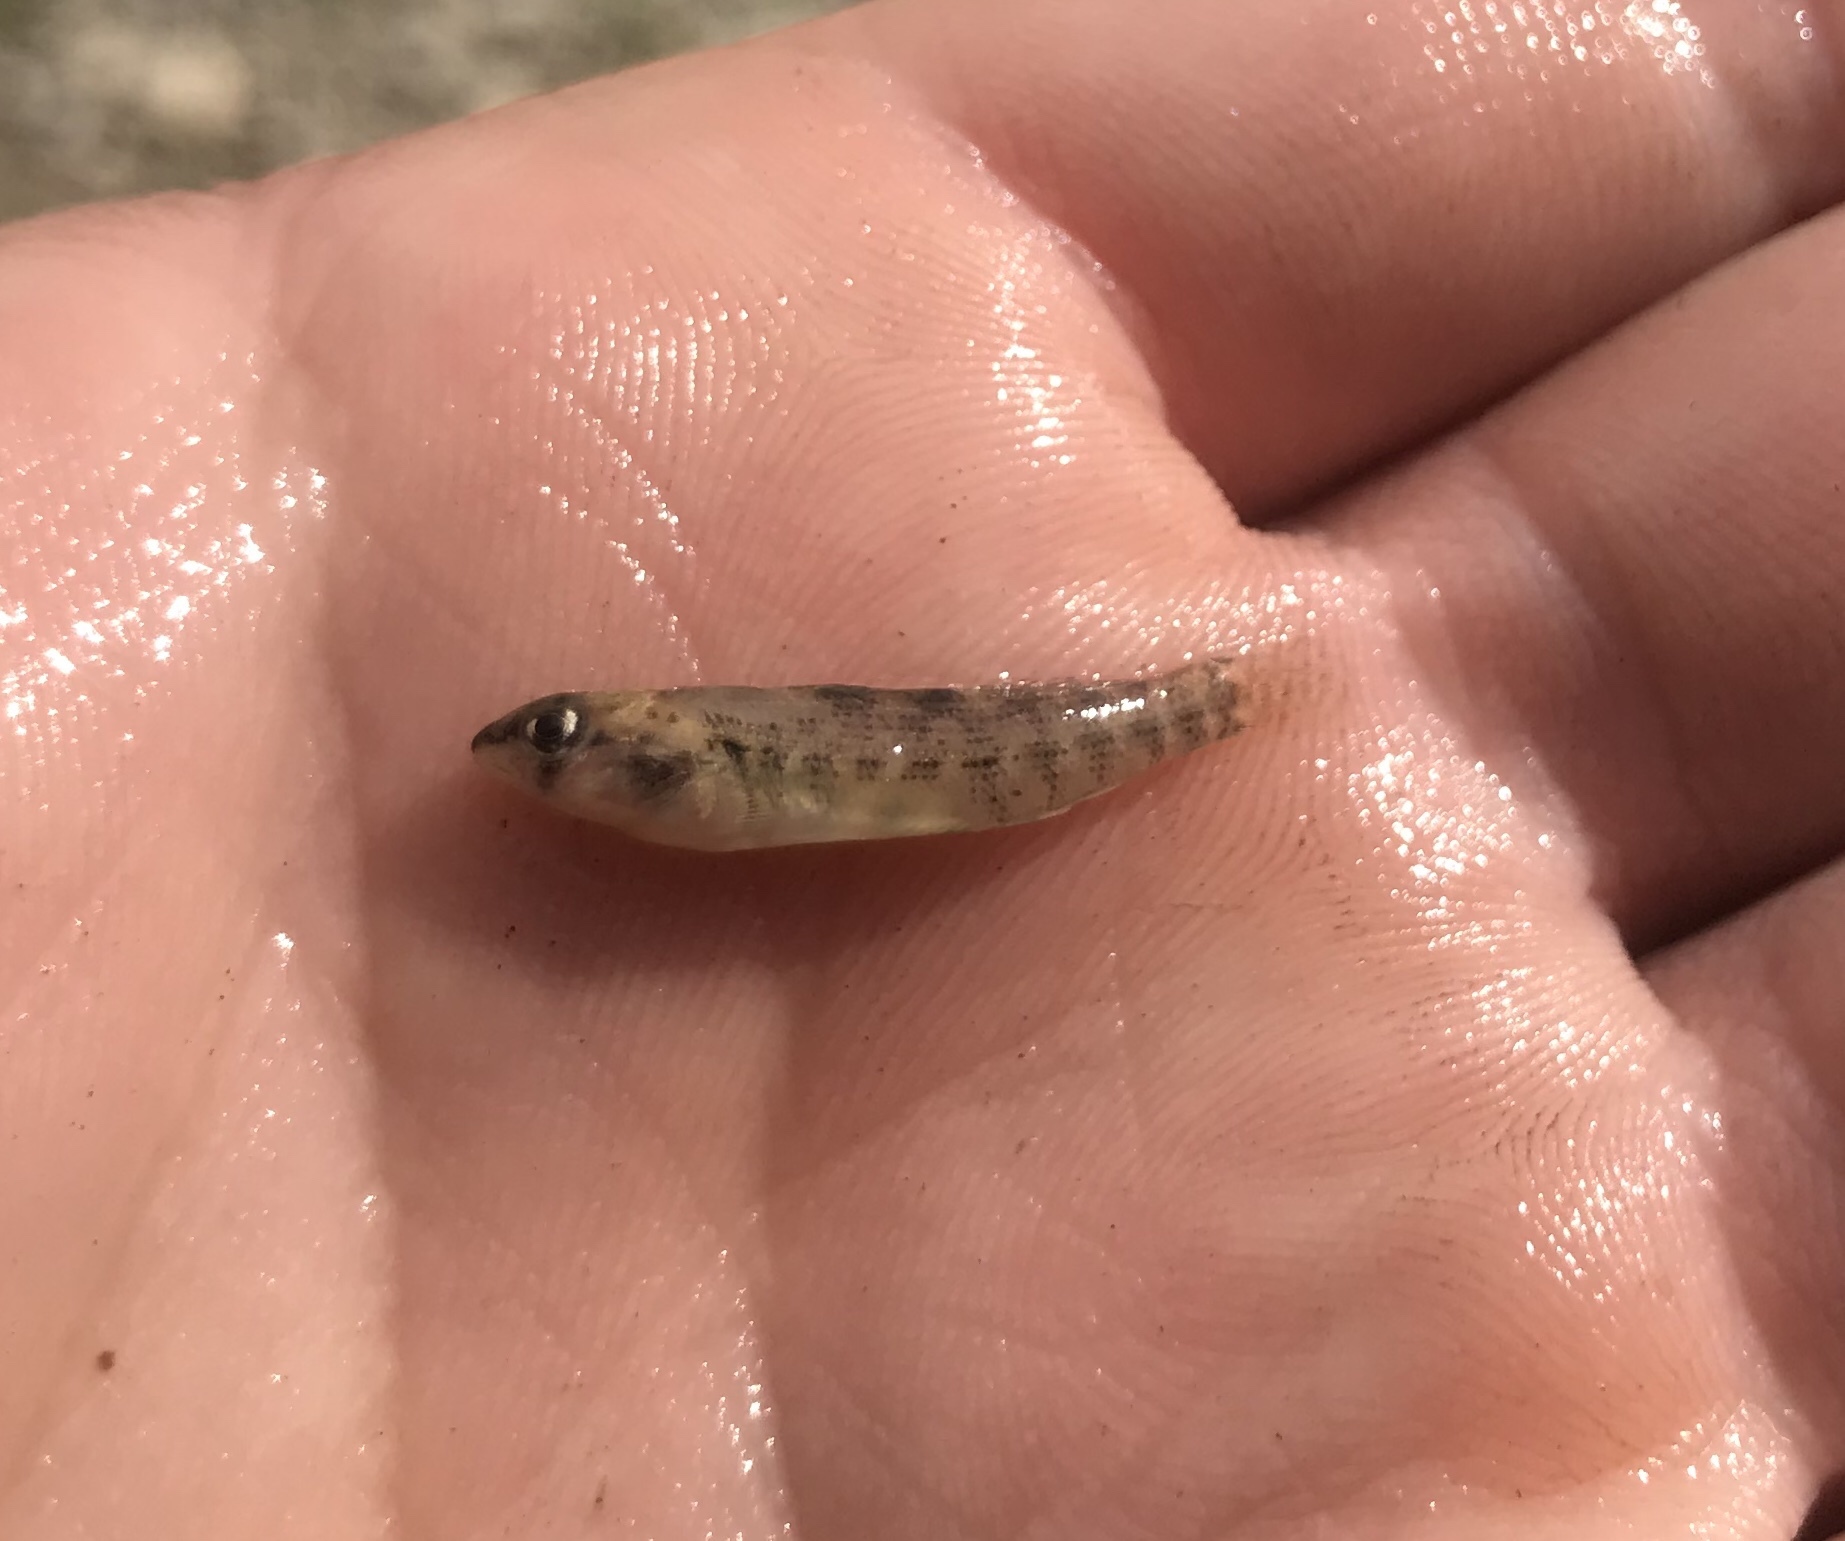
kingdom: Animalia
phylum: Chordata
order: Perciformes
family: Percidae
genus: Etheostoma
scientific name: Etheostoma pulchellum
